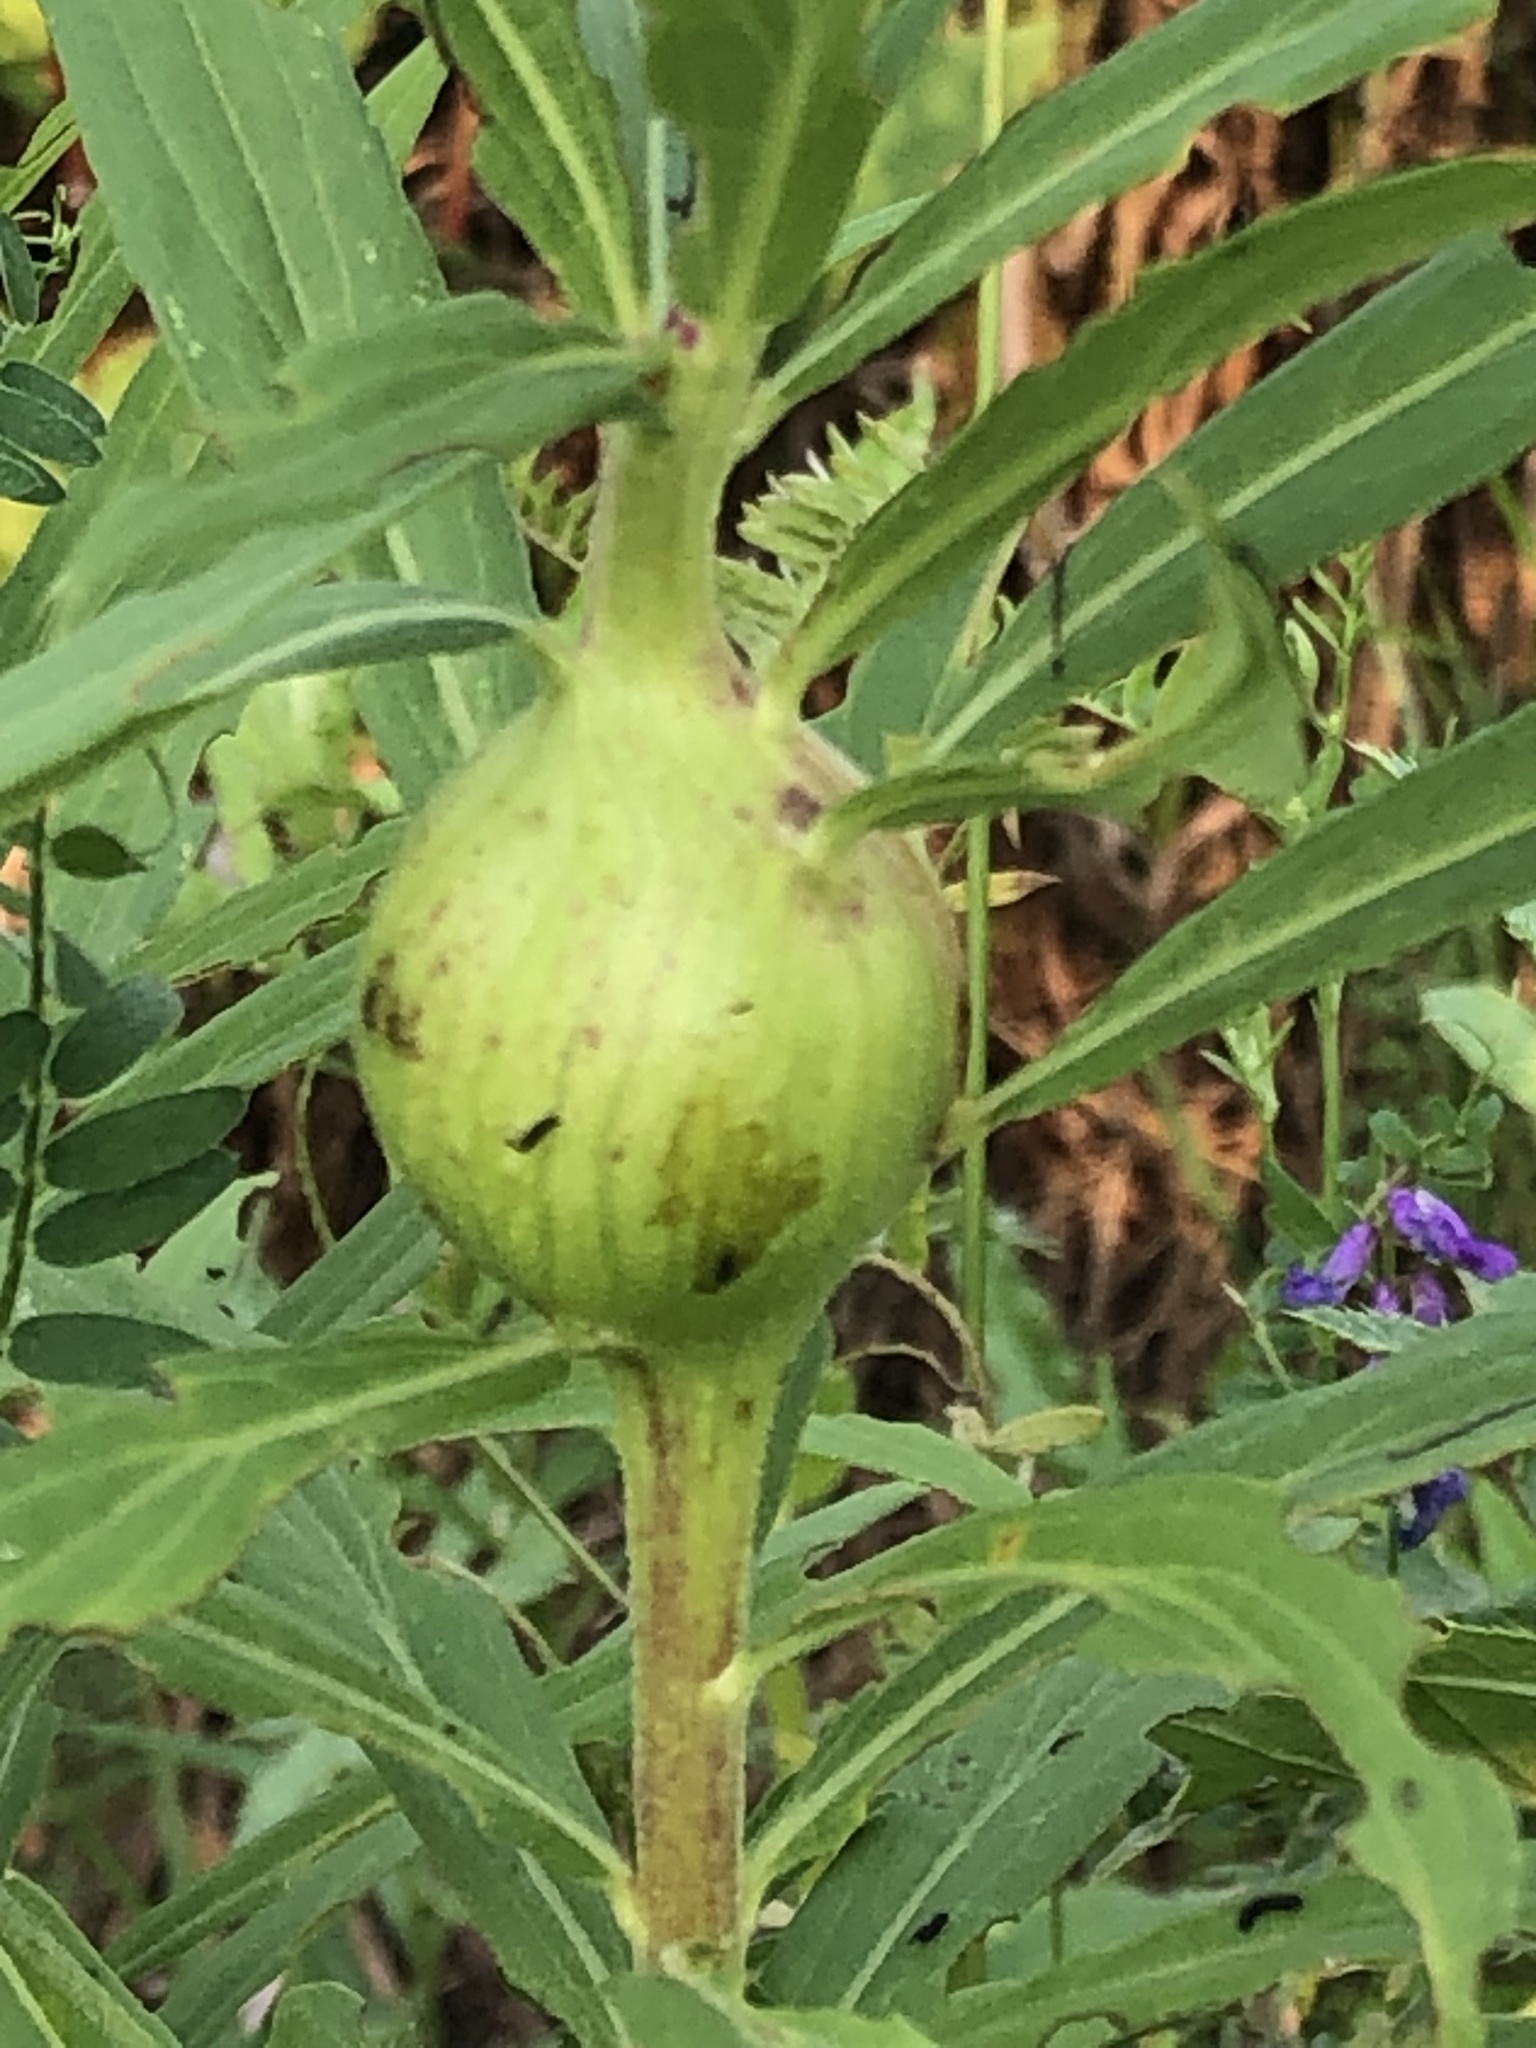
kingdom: Animalia
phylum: Arthropoda
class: Insecta
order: Diptera
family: Tephritidae
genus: Eurosta
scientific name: Eurosta solidaginis
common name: Goldenrod gall fly
